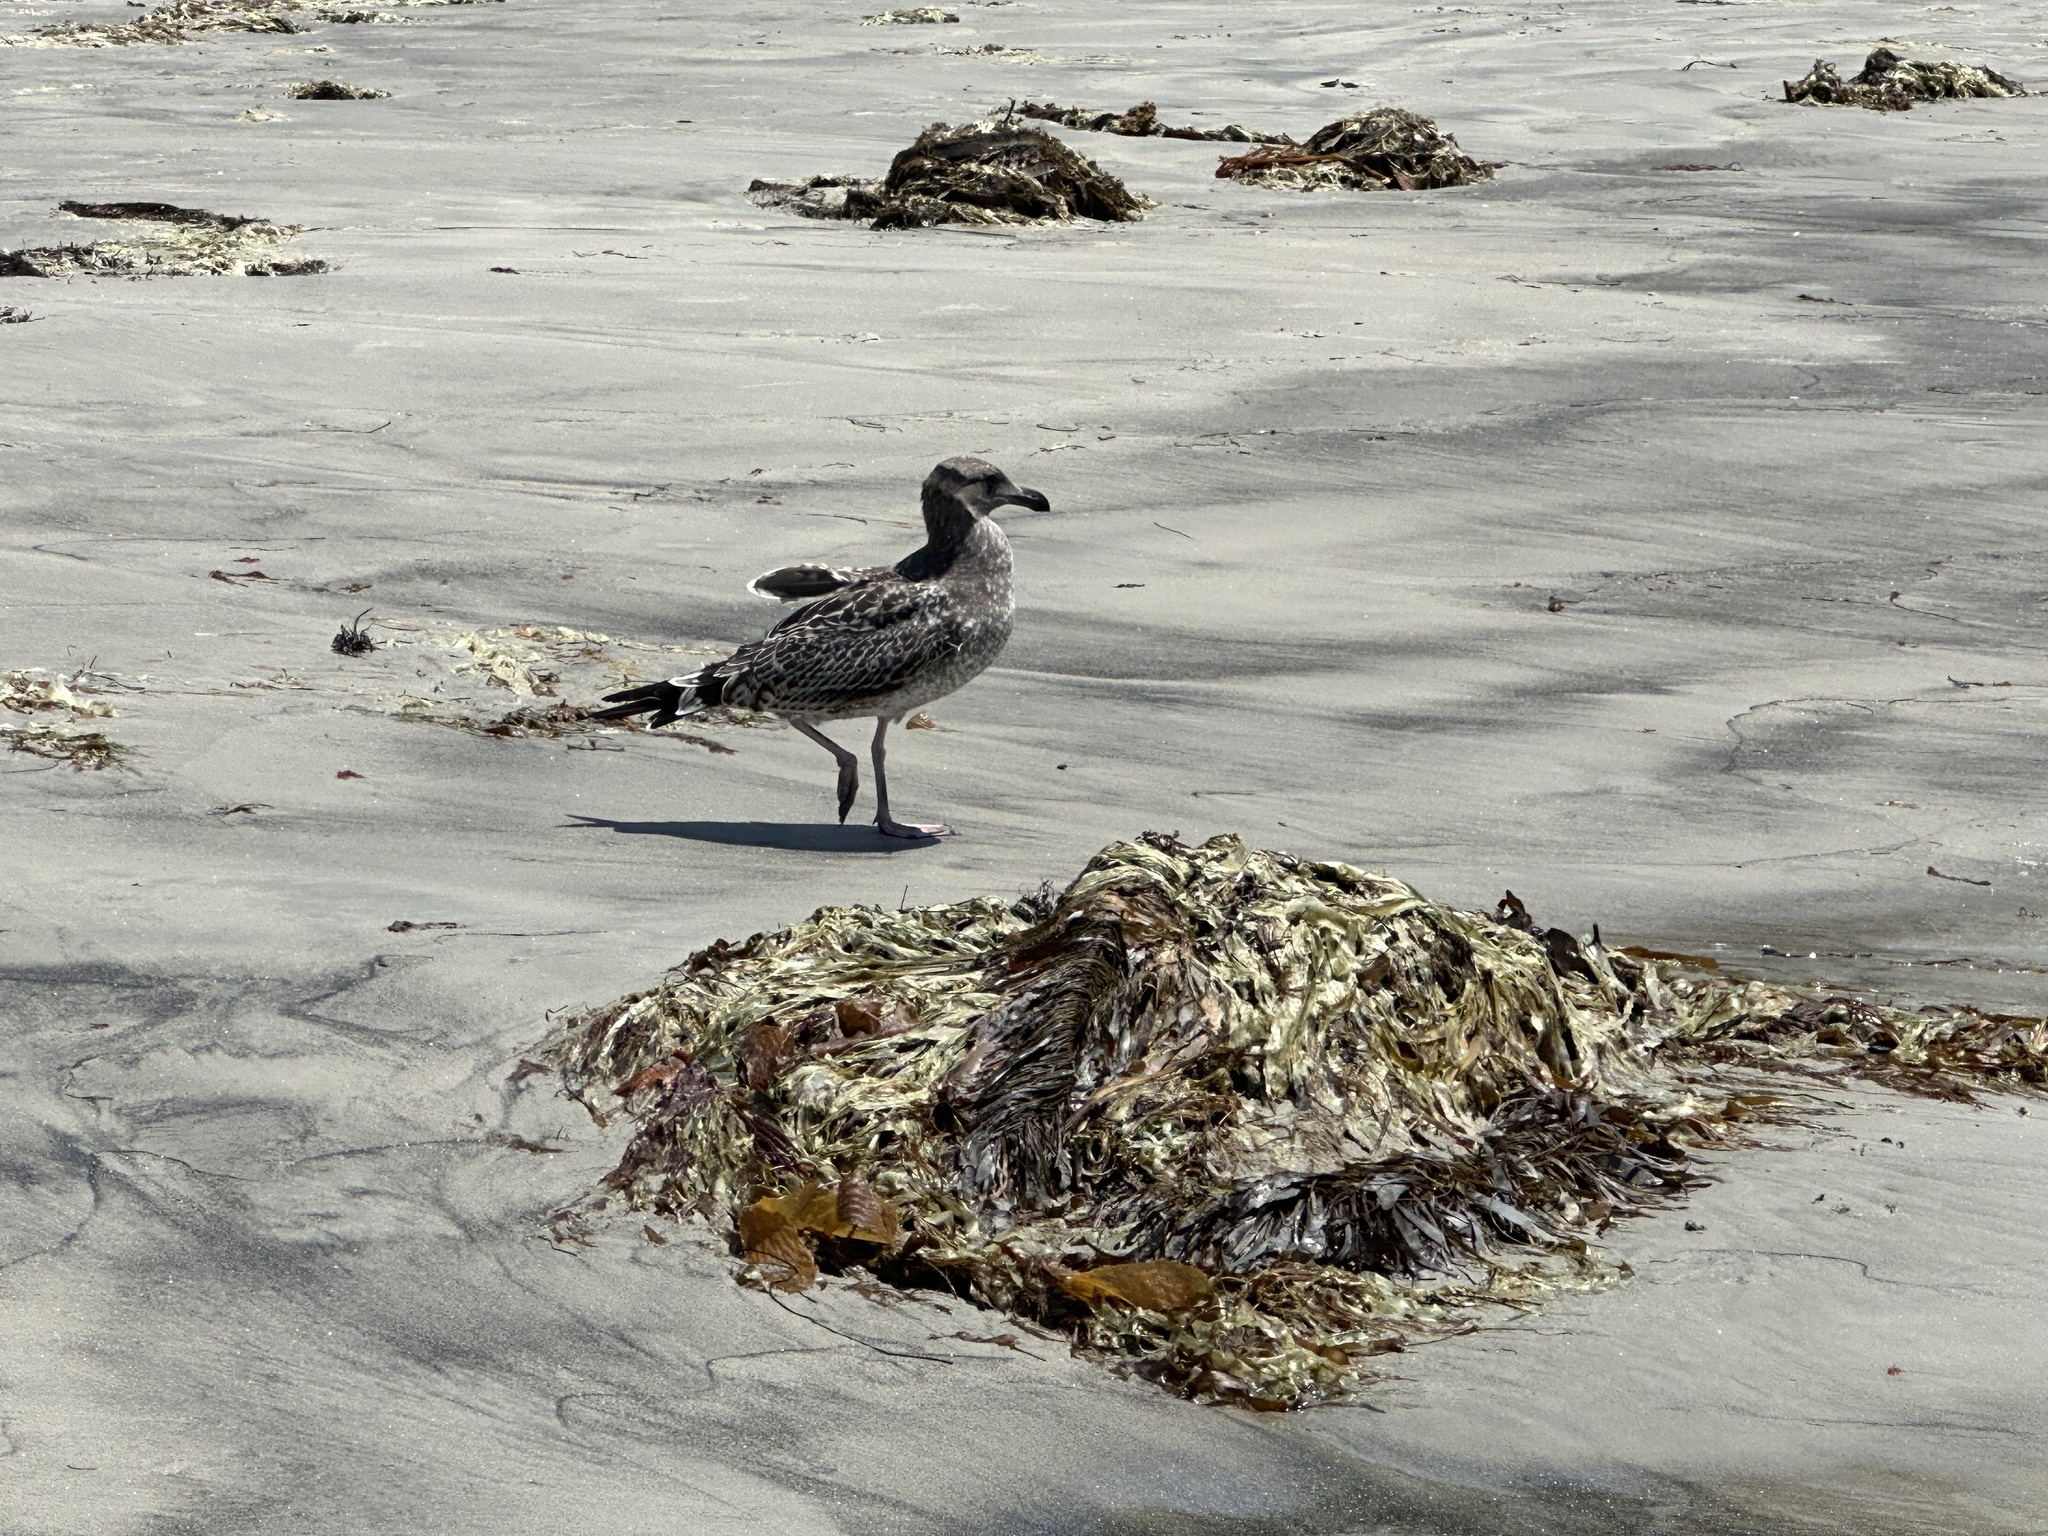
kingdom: Animalia
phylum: Arthropoda
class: Maxillopoda
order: Sessilia
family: Balanidae
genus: Paraconcavus
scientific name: Paraconcavus pacificus
